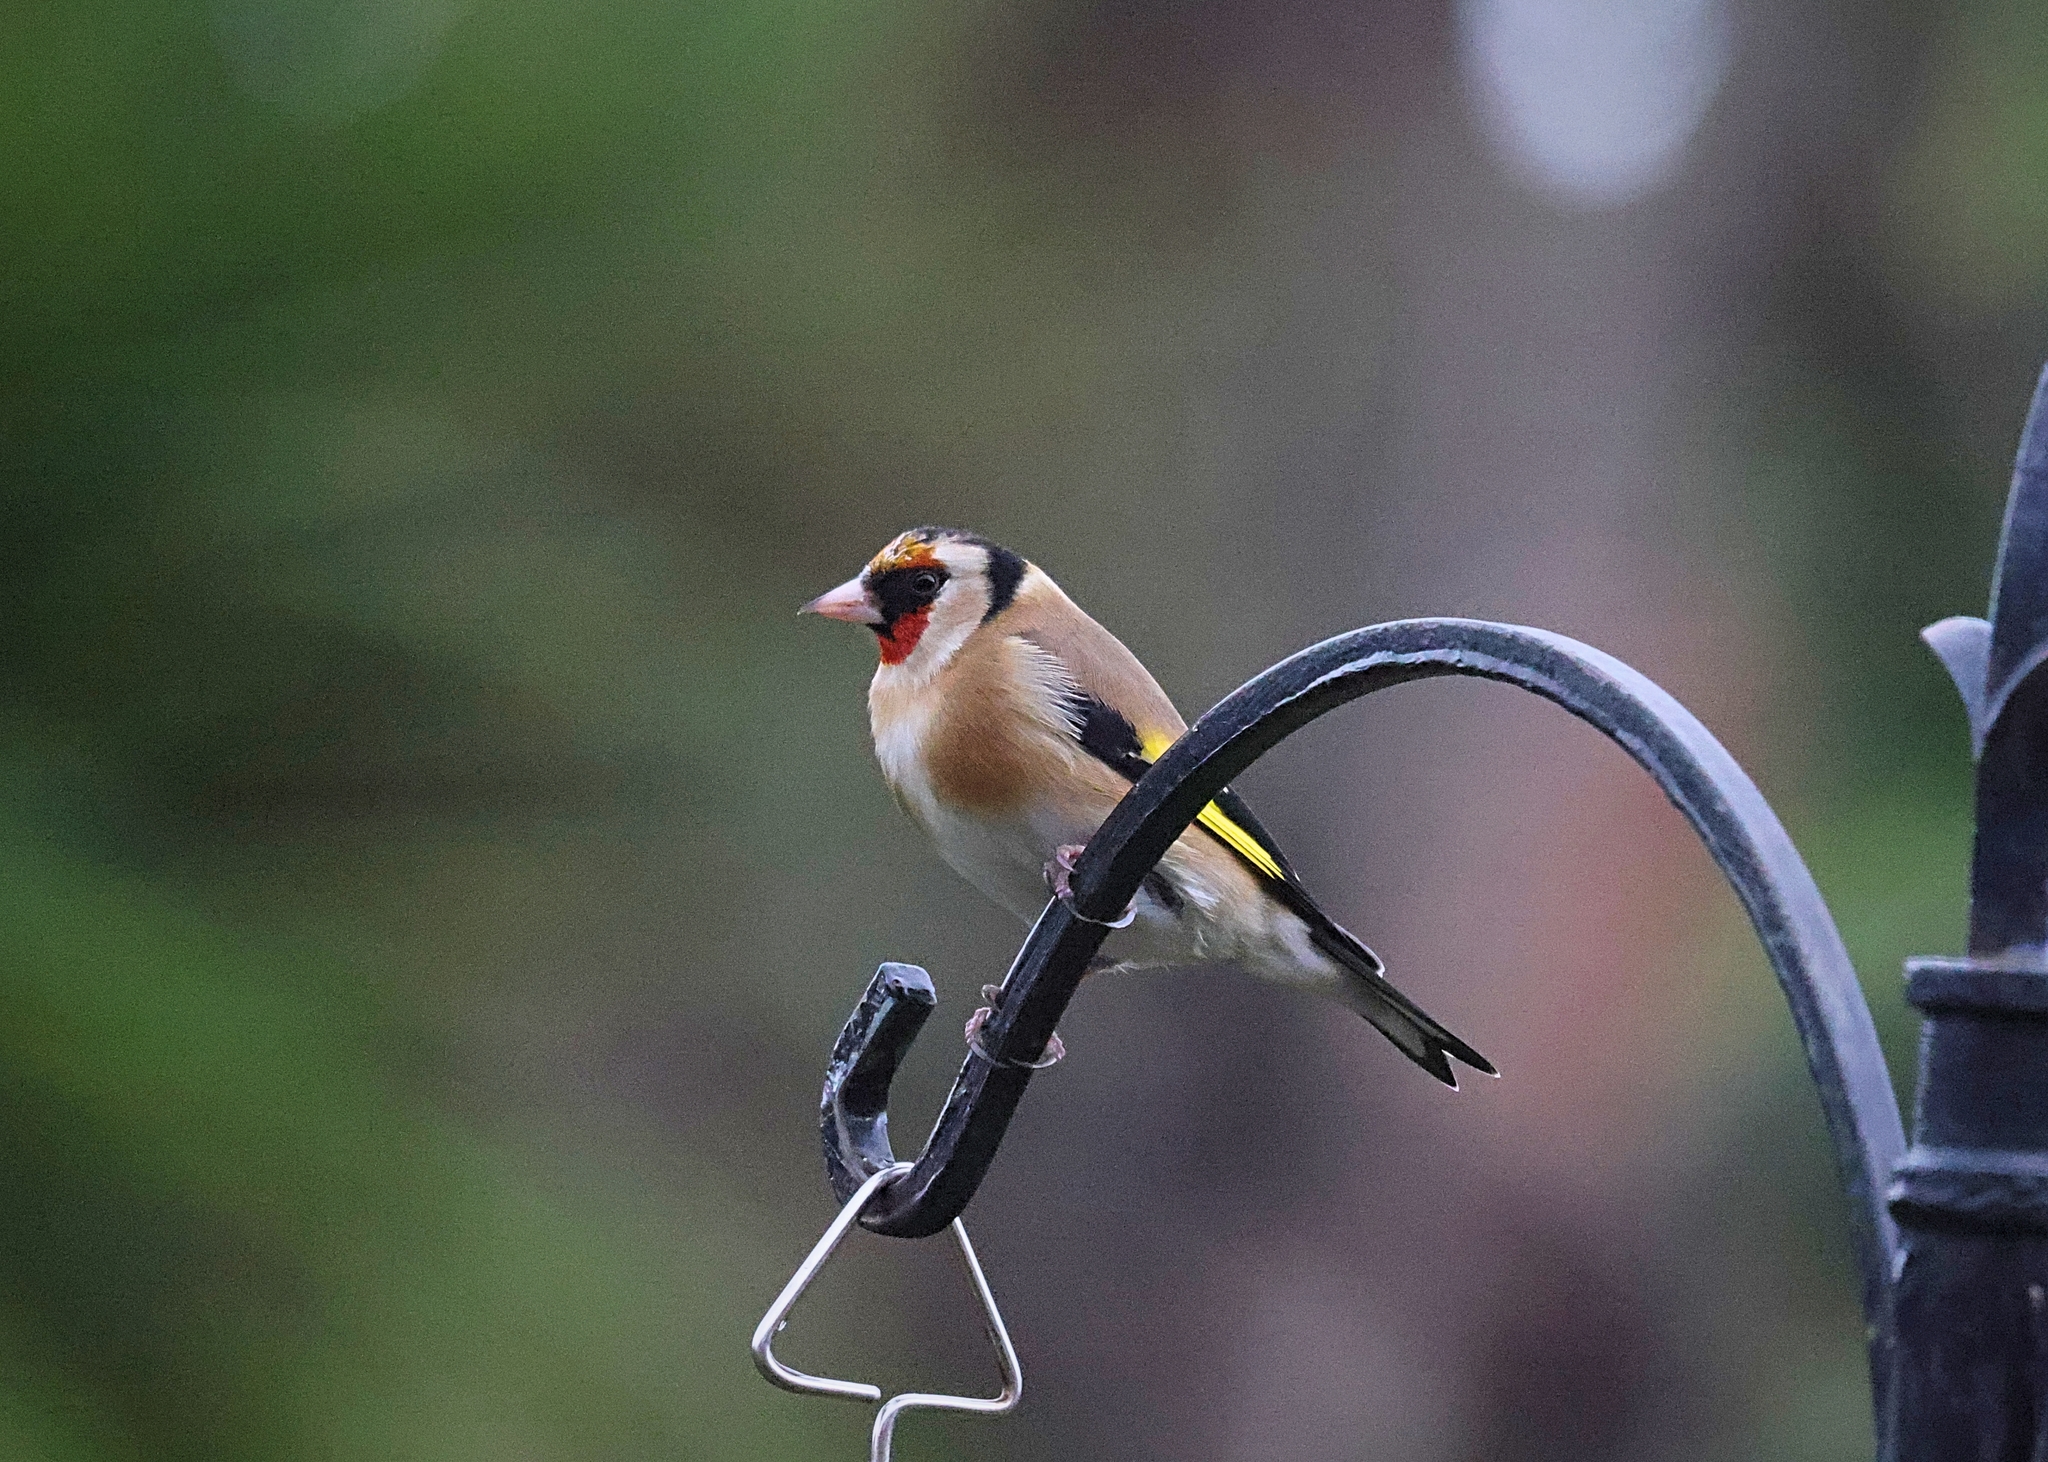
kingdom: Animalia
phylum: Chordata
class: Aves
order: Passeriformes
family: Fringillidae
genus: Carduelis
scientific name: Carduelis carduelis
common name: European goldfinch
